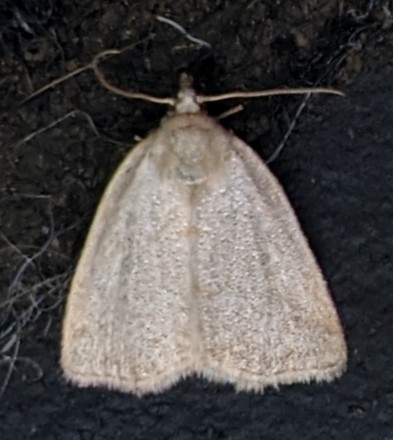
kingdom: Animalia
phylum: Arthropoda
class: Insecta
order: Lepidoptera
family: Noctuidae
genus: Protodeltote
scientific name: Protodeltote albidula
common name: Pale glyph
